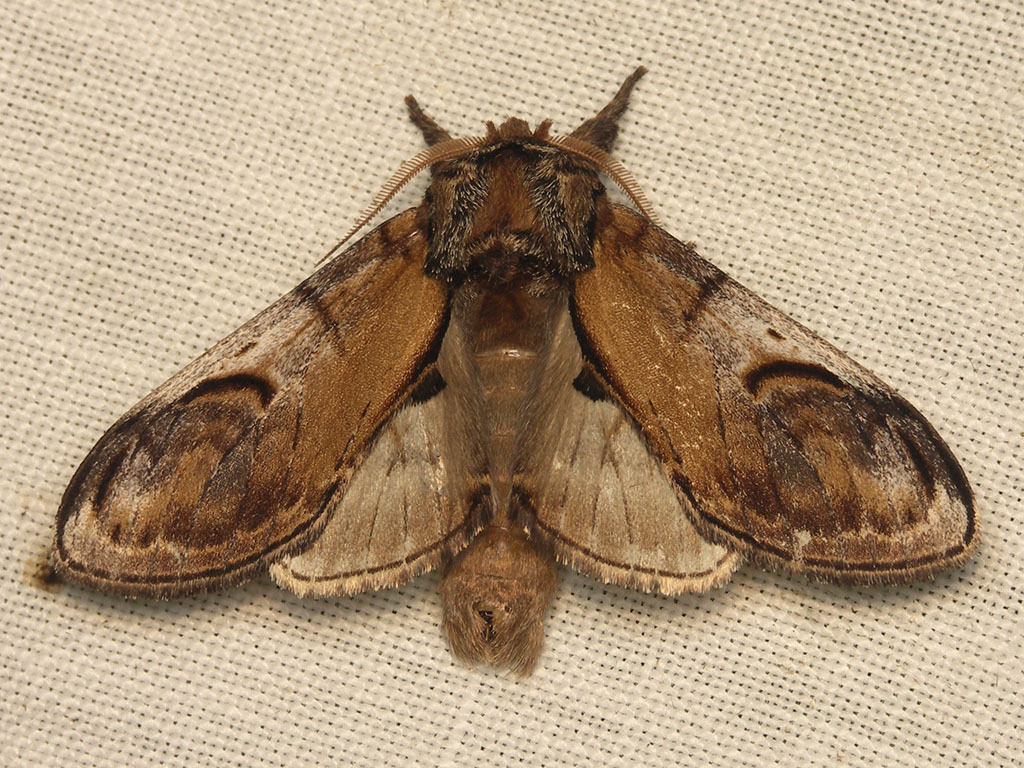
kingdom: Animalia
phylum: Arthropoda
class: Insecta
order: Lepidoptera
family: Notodontidae
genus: Notodonta
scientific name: Notodonta ziczac
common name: Pebble prominent
